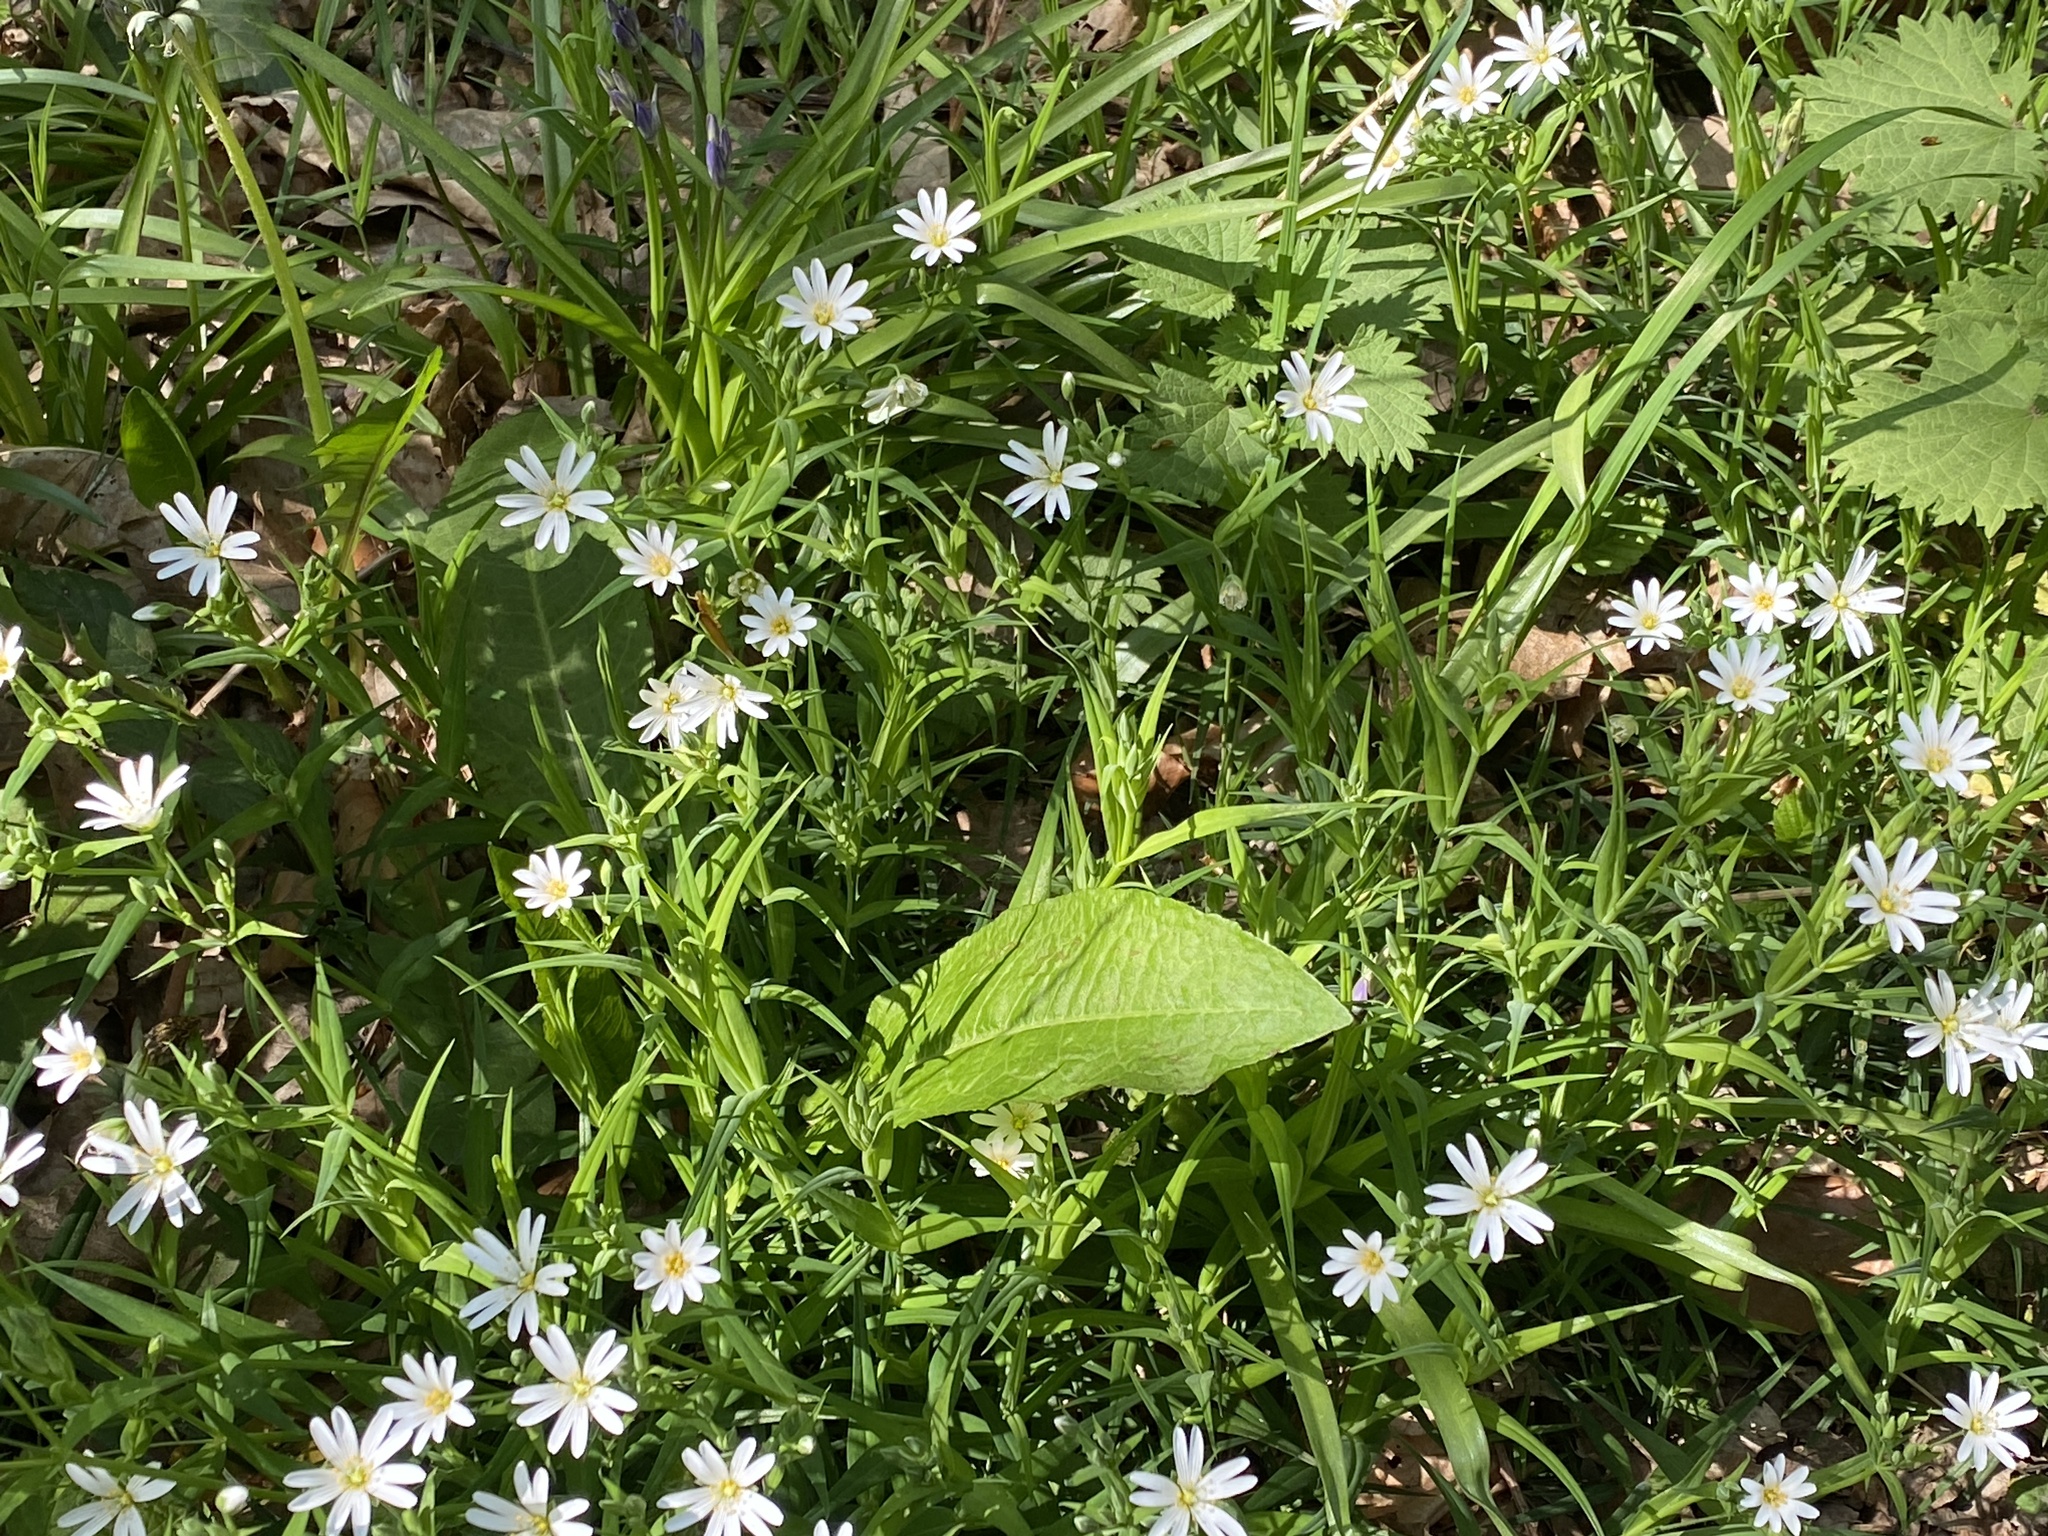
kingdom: Plantae
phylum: Tracheophyta
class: Magnoliopsida
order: Caryophyllales
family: Caryophyllaceae
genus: Rabelera
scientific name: Rabelera holostea
